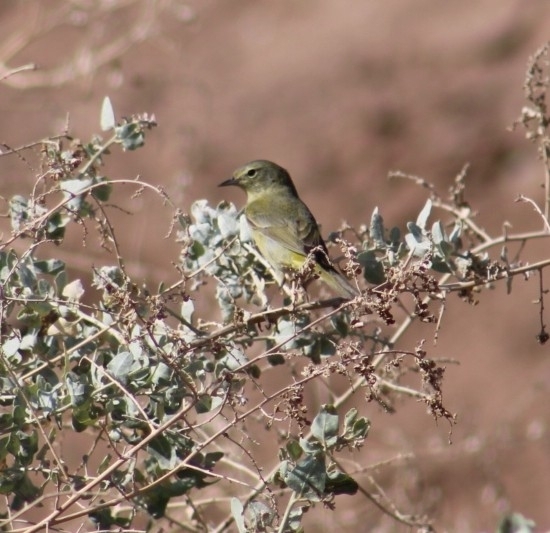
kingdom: Animalia
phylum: Chordata
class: Aves
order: Passeriformes
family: Parulidae
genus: Leiothlypis
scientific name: Leiothlypis celata
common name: Orange-crowned warbler
